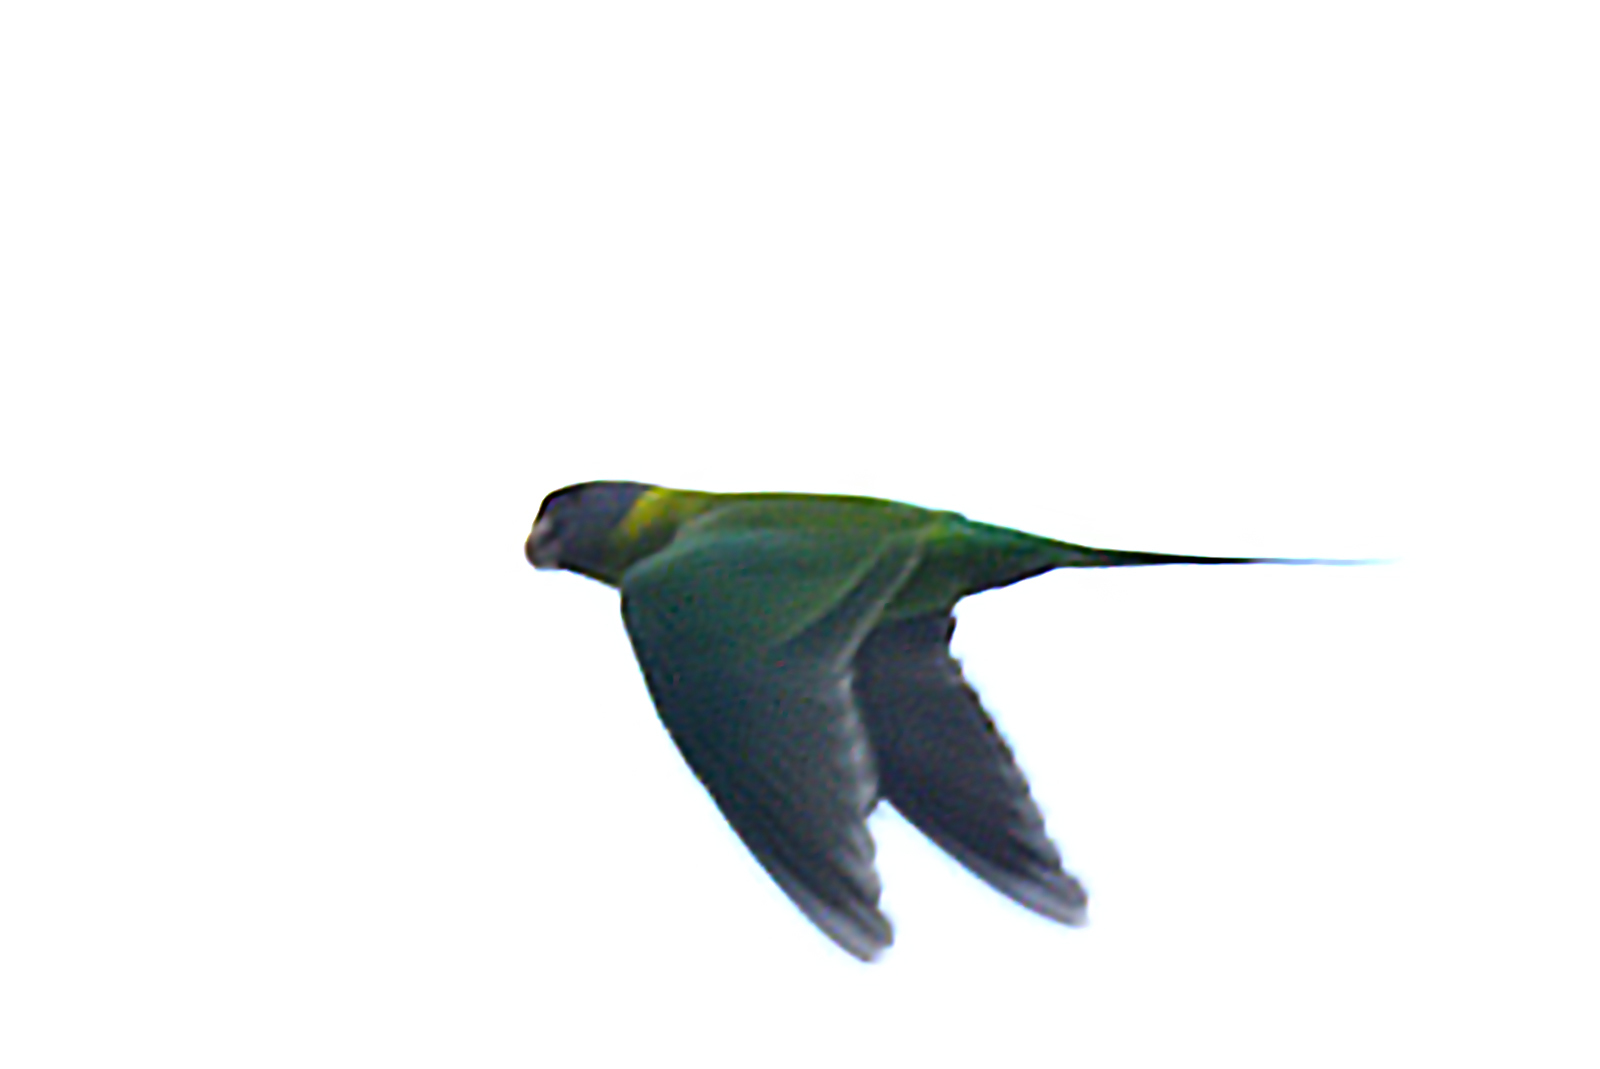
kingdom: Animalia
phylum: Chordata
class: Aves
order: Psittaciformes
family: Psittacidae
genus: Psittacula
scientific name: Psittacula cyanocephala
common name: Plum-headed parakeet
